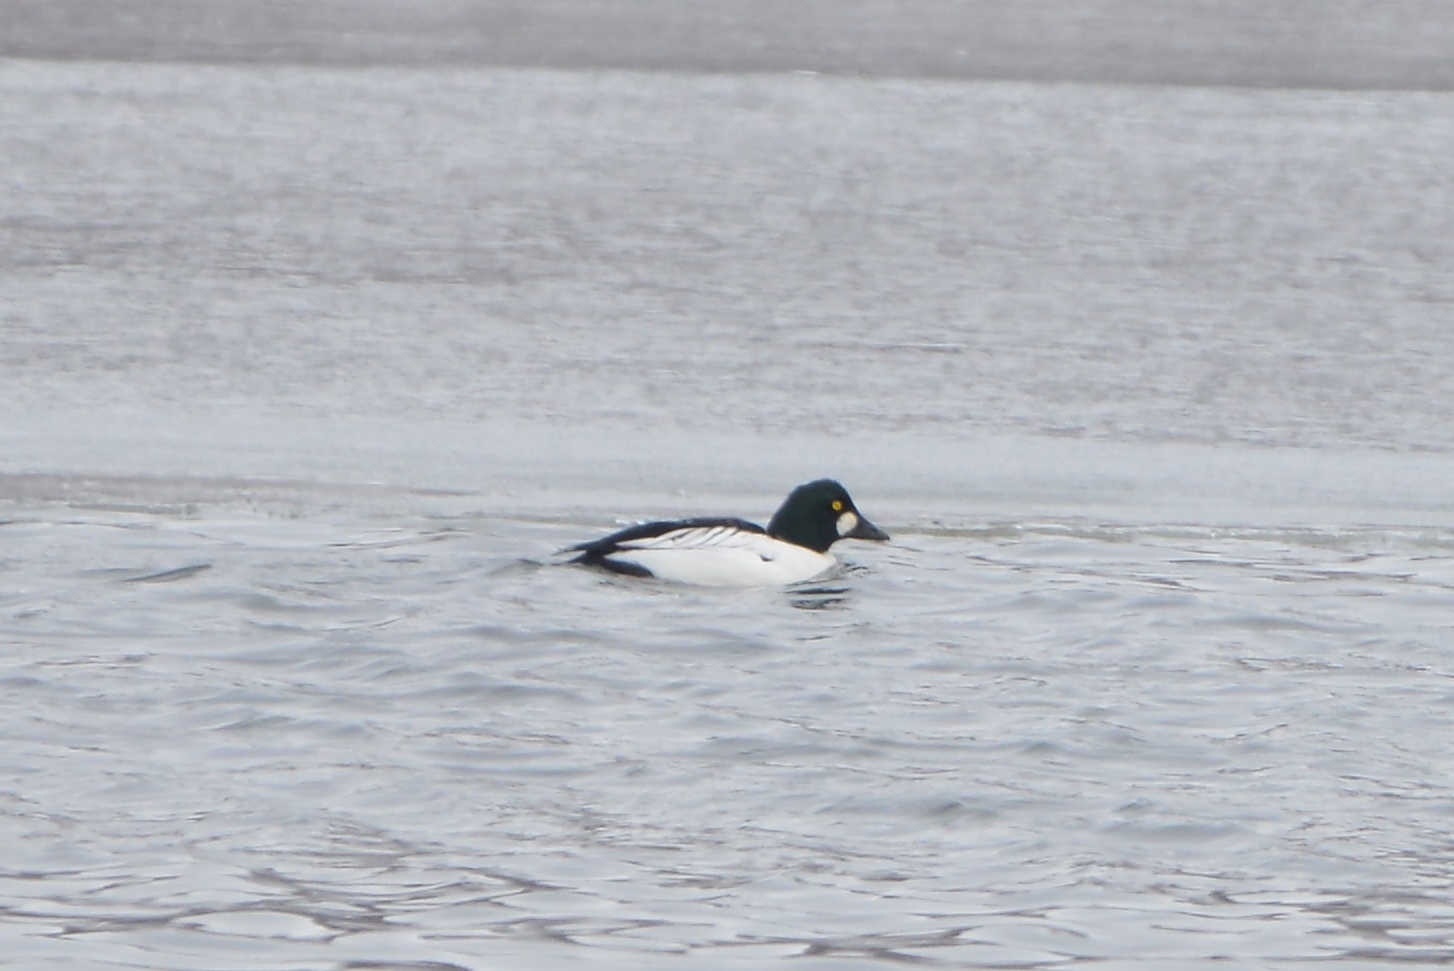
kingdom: Animalia
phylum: Chordata
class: Aves
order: Anseriformes
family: Anatidae
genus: Bucephala
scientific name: Bucephala clangula
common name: Common goldeneye
